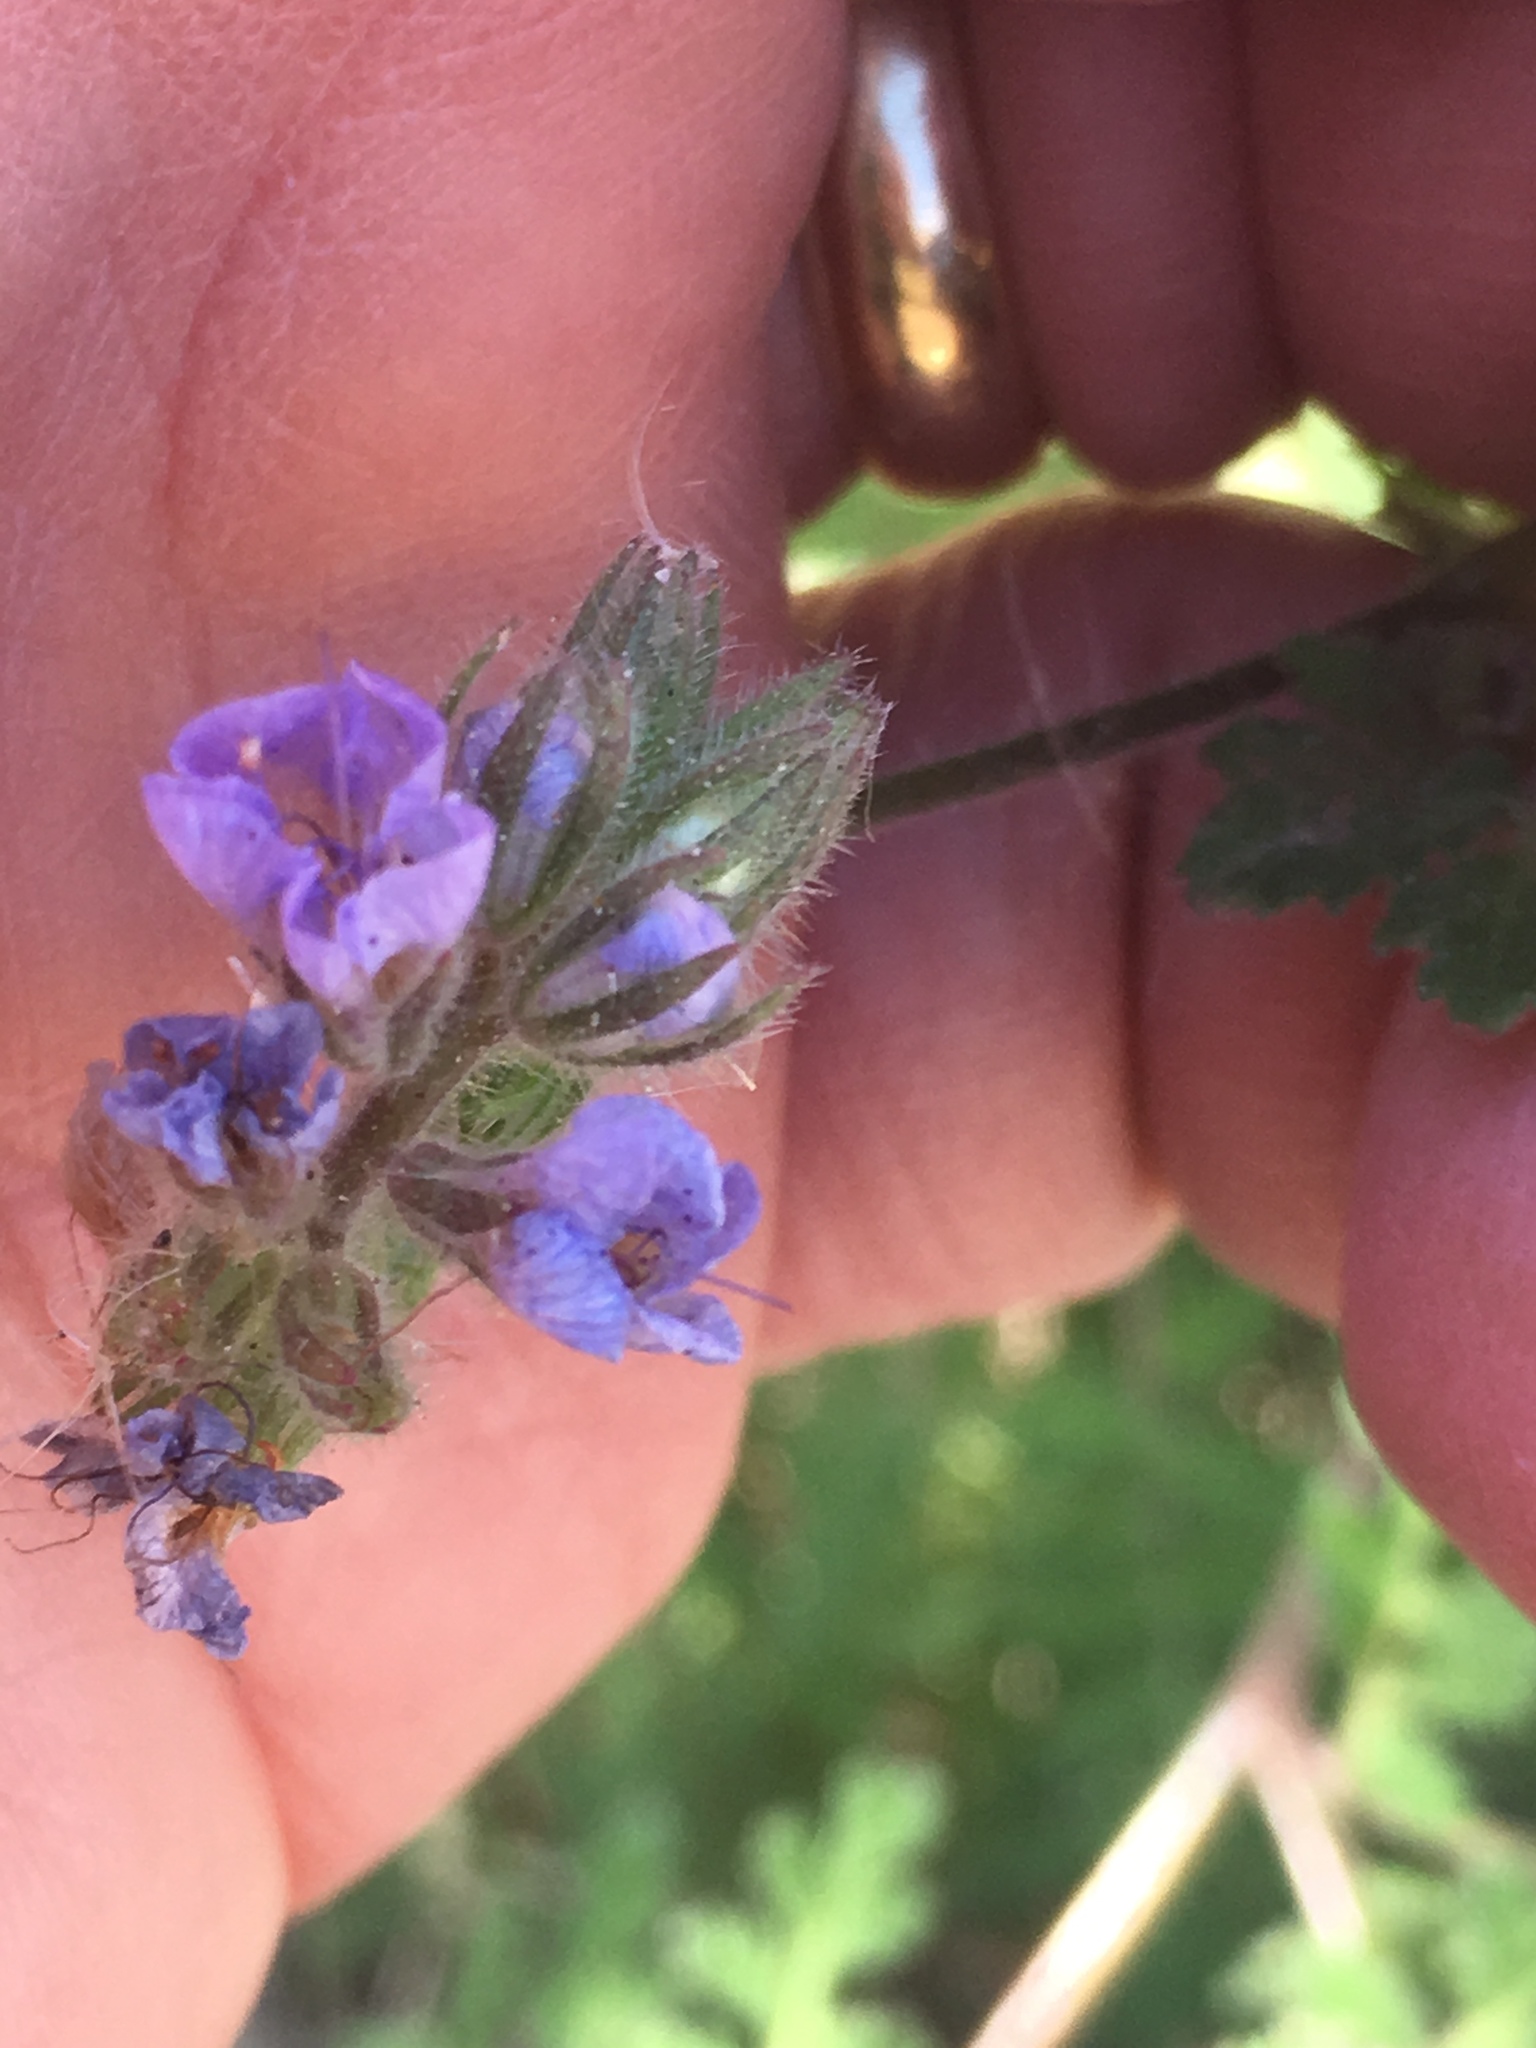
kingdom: Plantae
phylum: Tracheophyta
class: Magnoliopsida
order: Boraginales
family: Hydrophyllaceae
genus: Phacelia
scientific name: Phacelia distans
